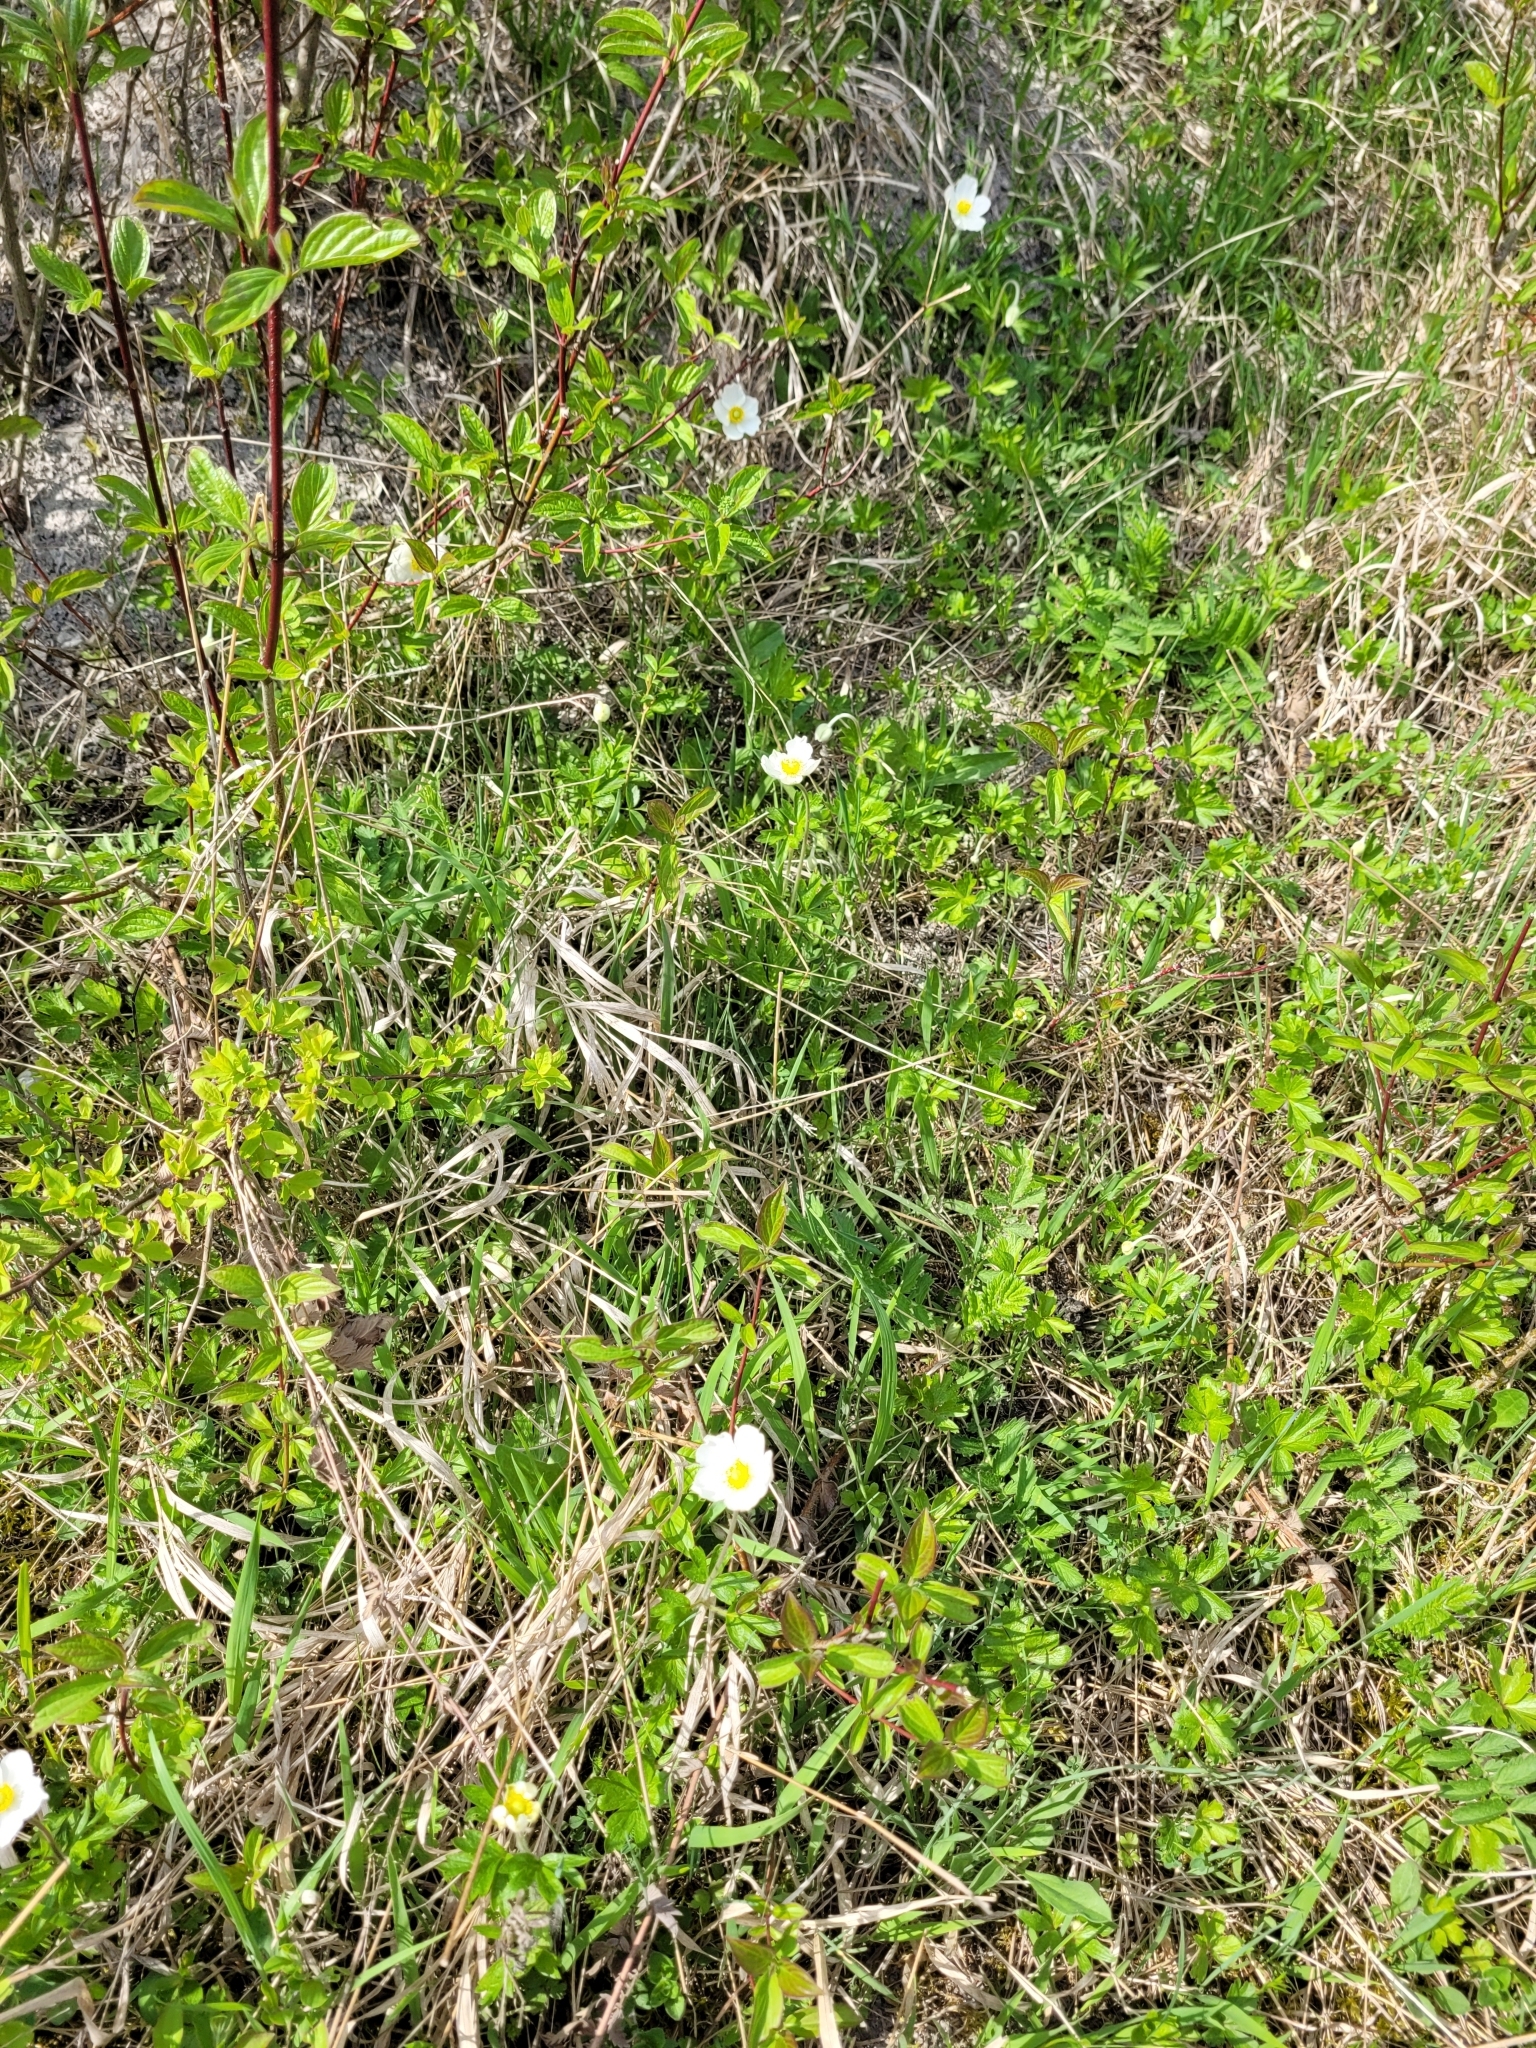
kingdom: Plantae
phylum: Tracheophyta
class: Magnoliopsida
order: Ranunculales
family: Ranunculaceae
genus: Anemone
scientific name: Anemone sylvestris
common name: Snowdrop anemone
